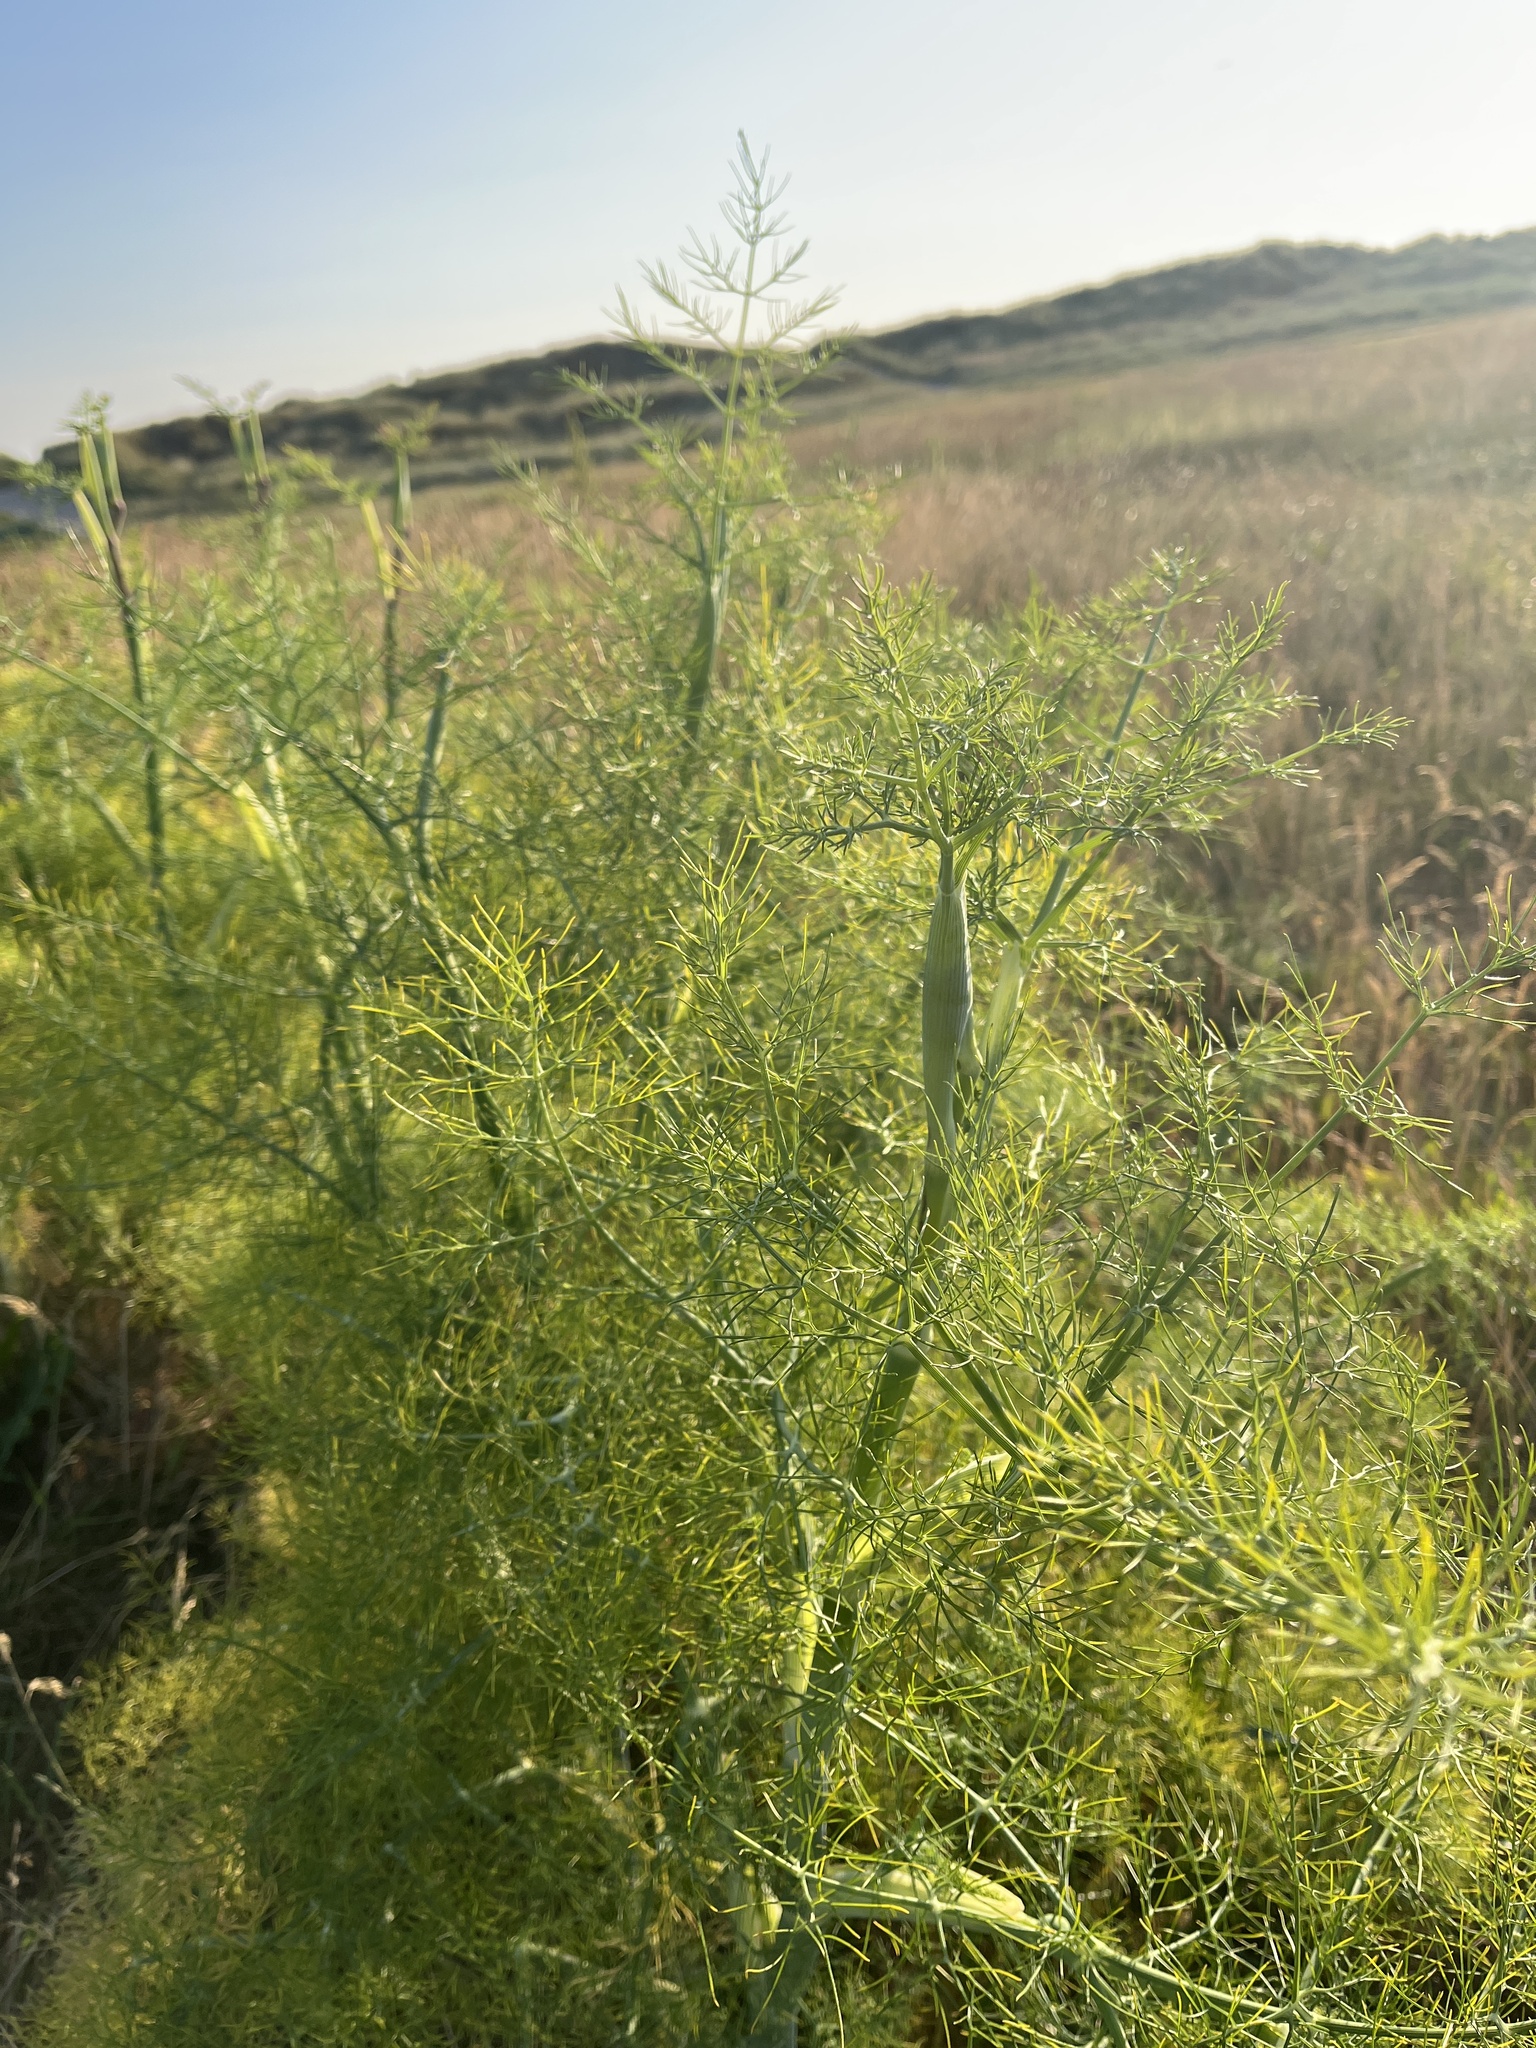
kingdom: Plantae
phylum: Tracheophyta
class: Magnoliopsida
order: Apiales
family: Apiaceae
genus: Foeniculum
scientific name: Foeniculum vulgare
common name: Fennel
